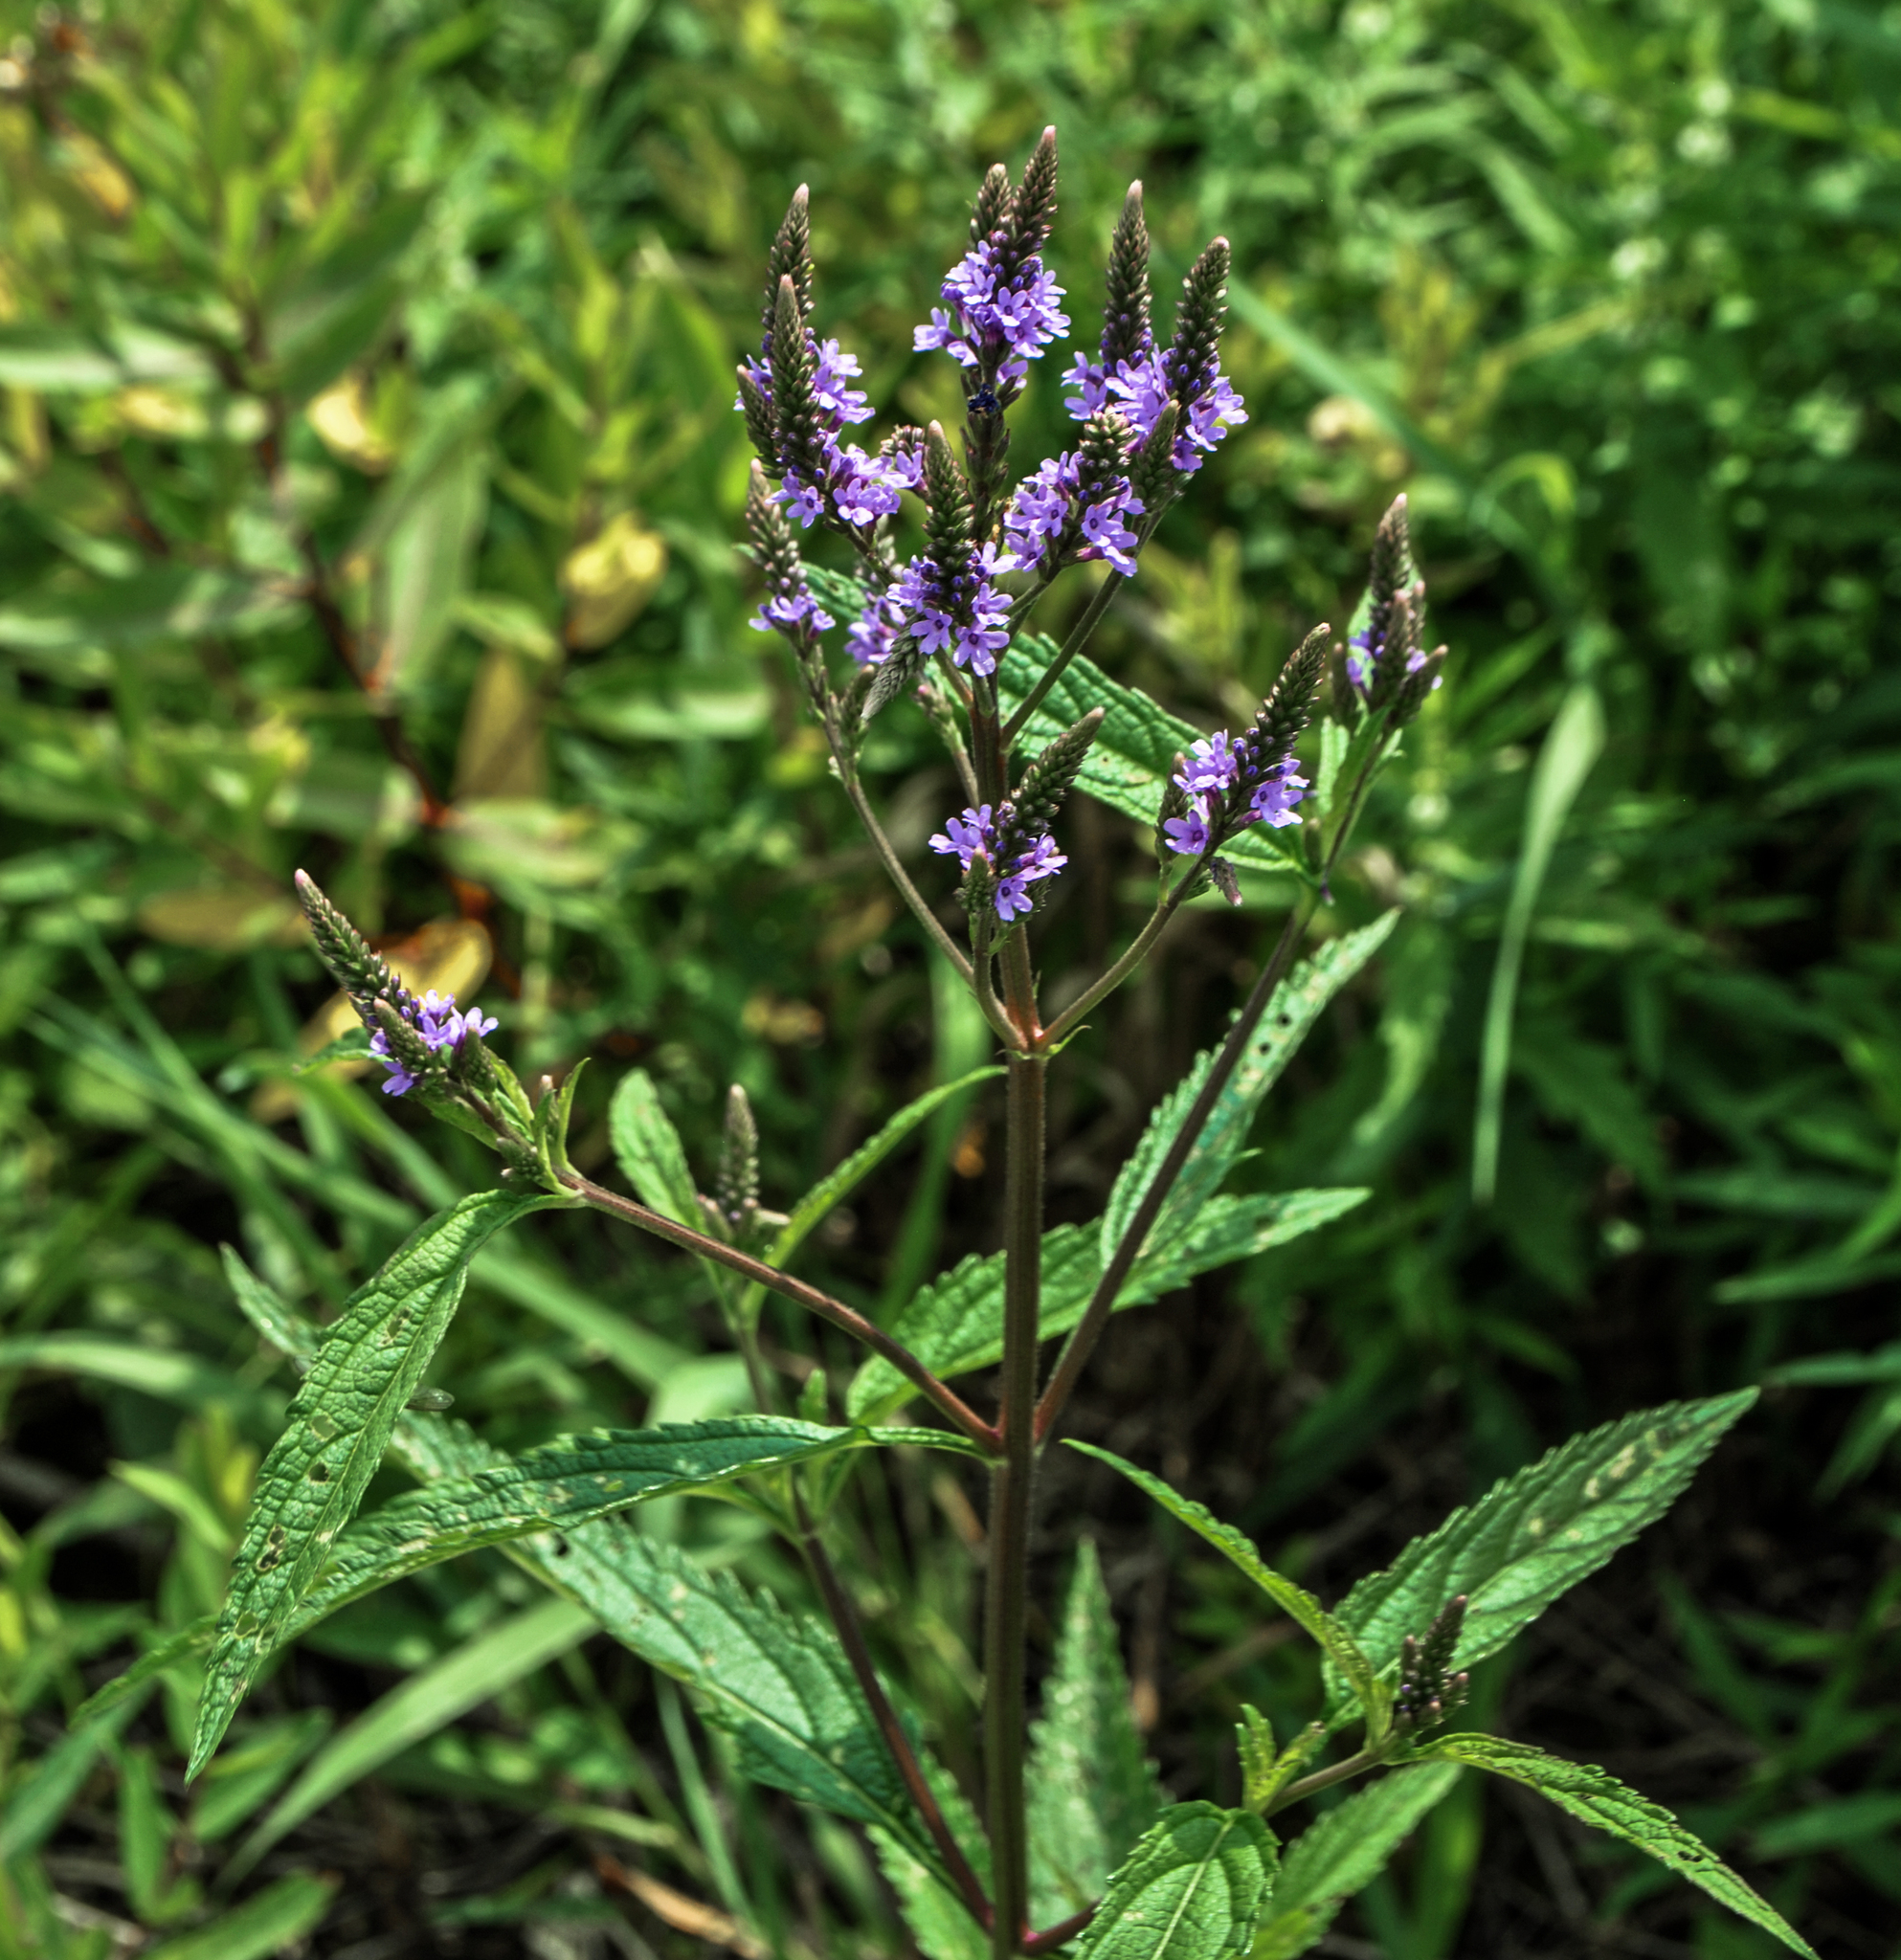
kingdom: Plantae
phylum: Tracheophyta
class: Magnoliopsida
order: Lamiales
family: Verbenaceae
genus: Verbena
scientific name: Verbena hastata
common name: American blue vervain
